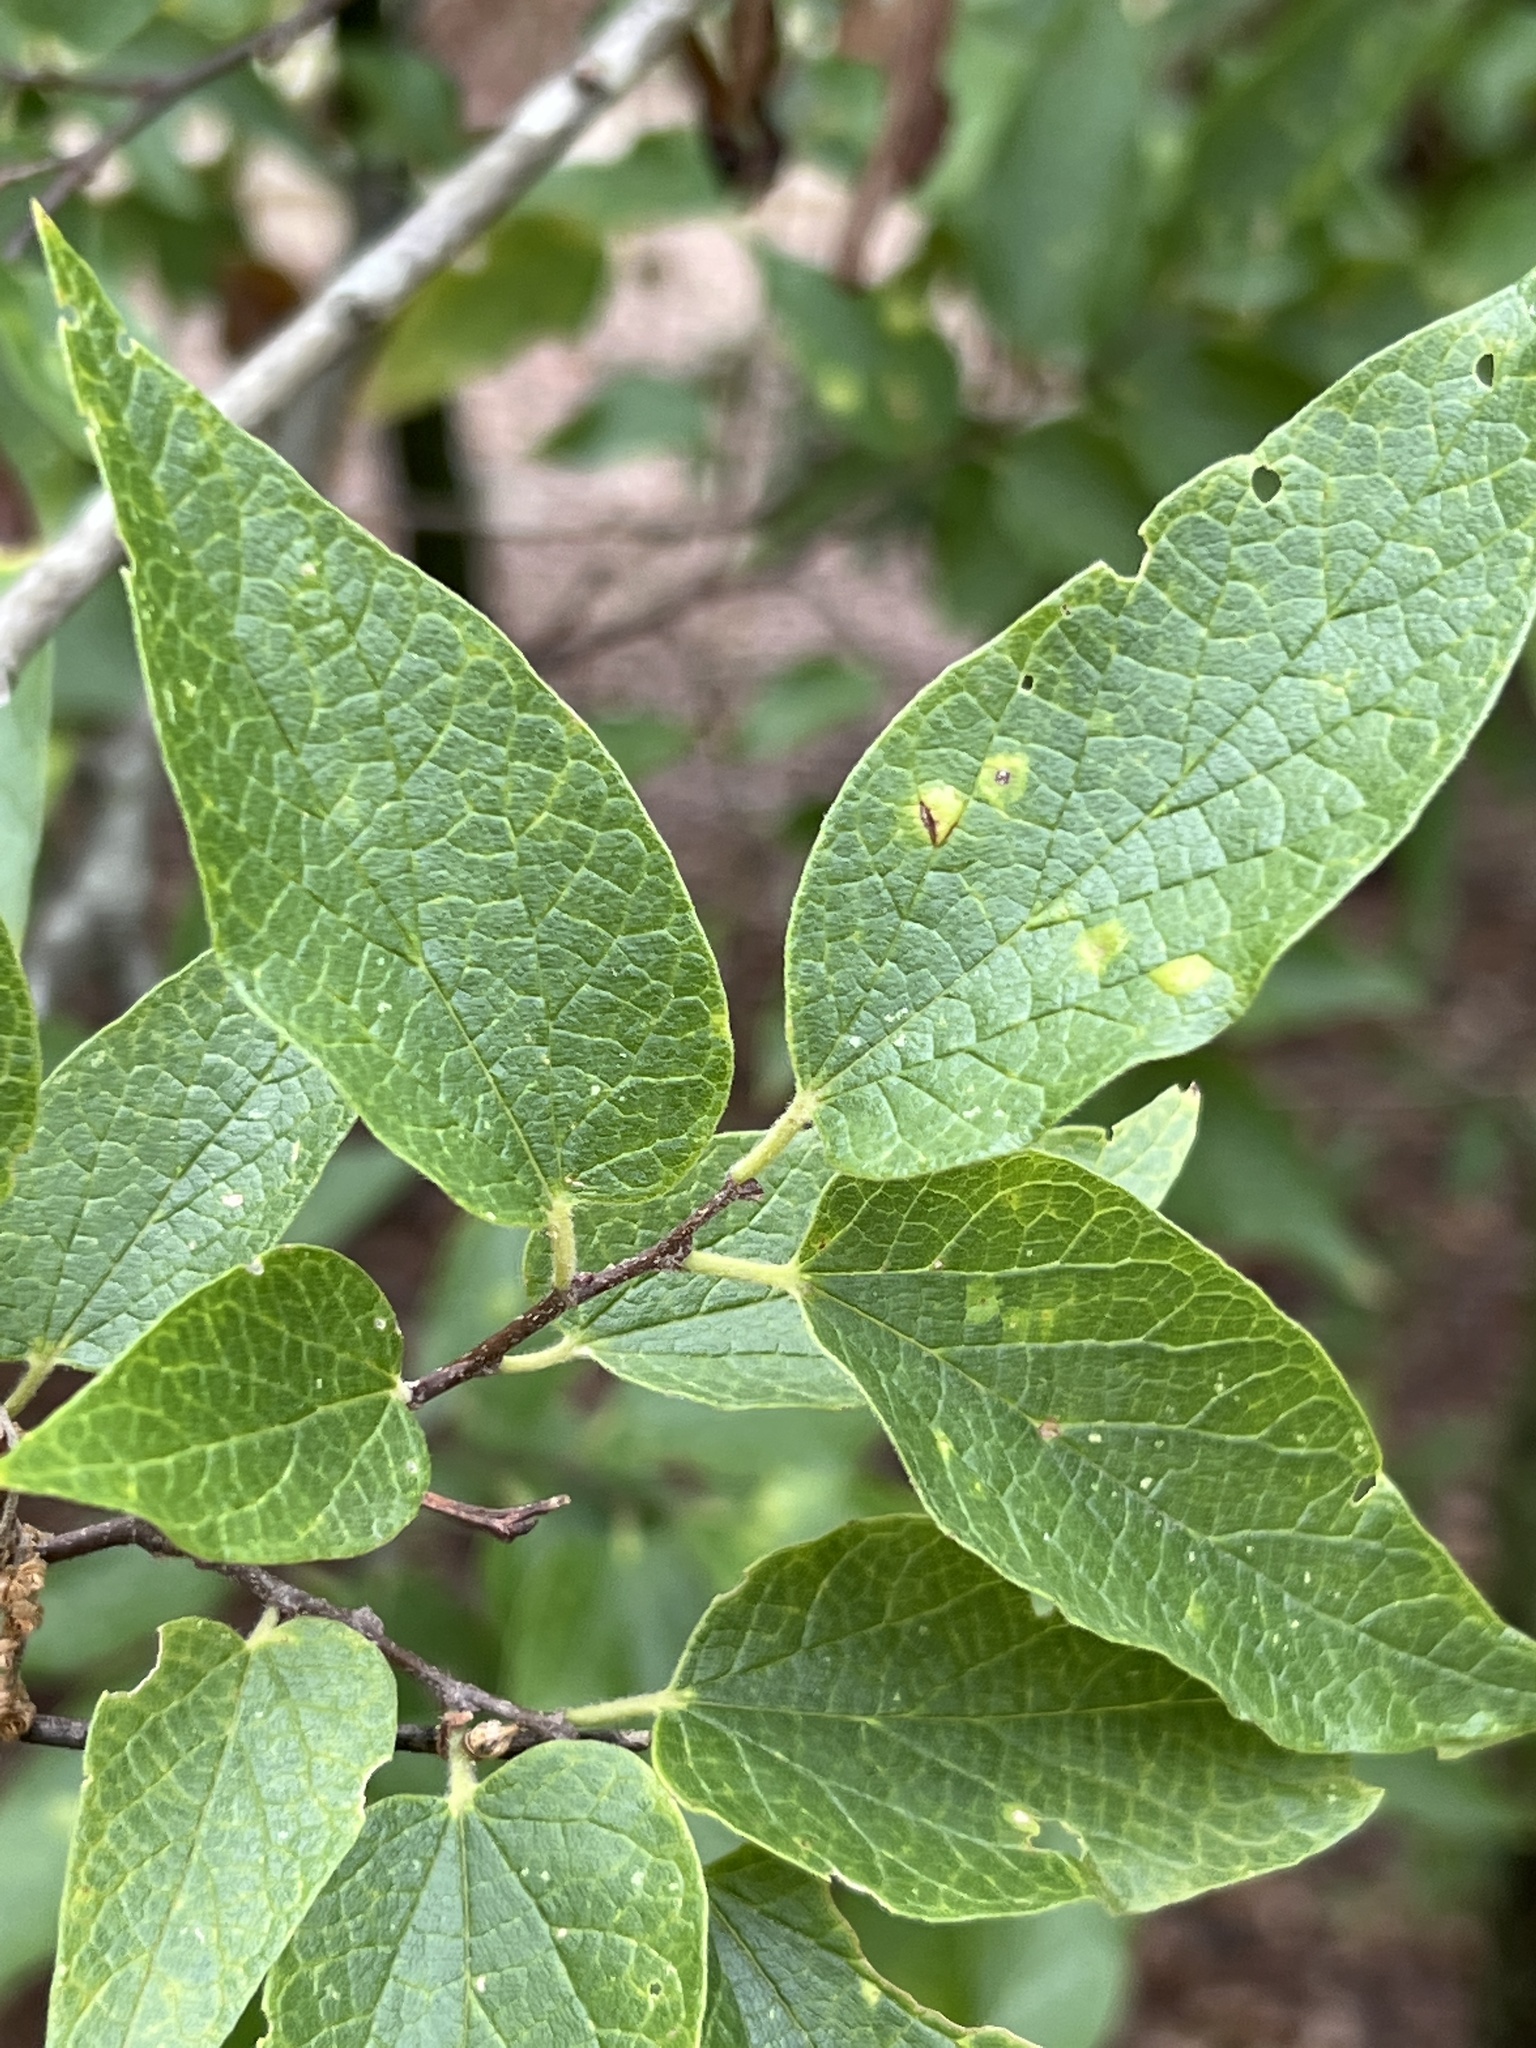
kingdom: Plantae
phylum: Tracheophyta
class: Magnoliopsida
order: Rosales
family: Cannabaceae
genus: Celtis
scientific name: Celtis reticulata
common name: Netleaf hackberry
